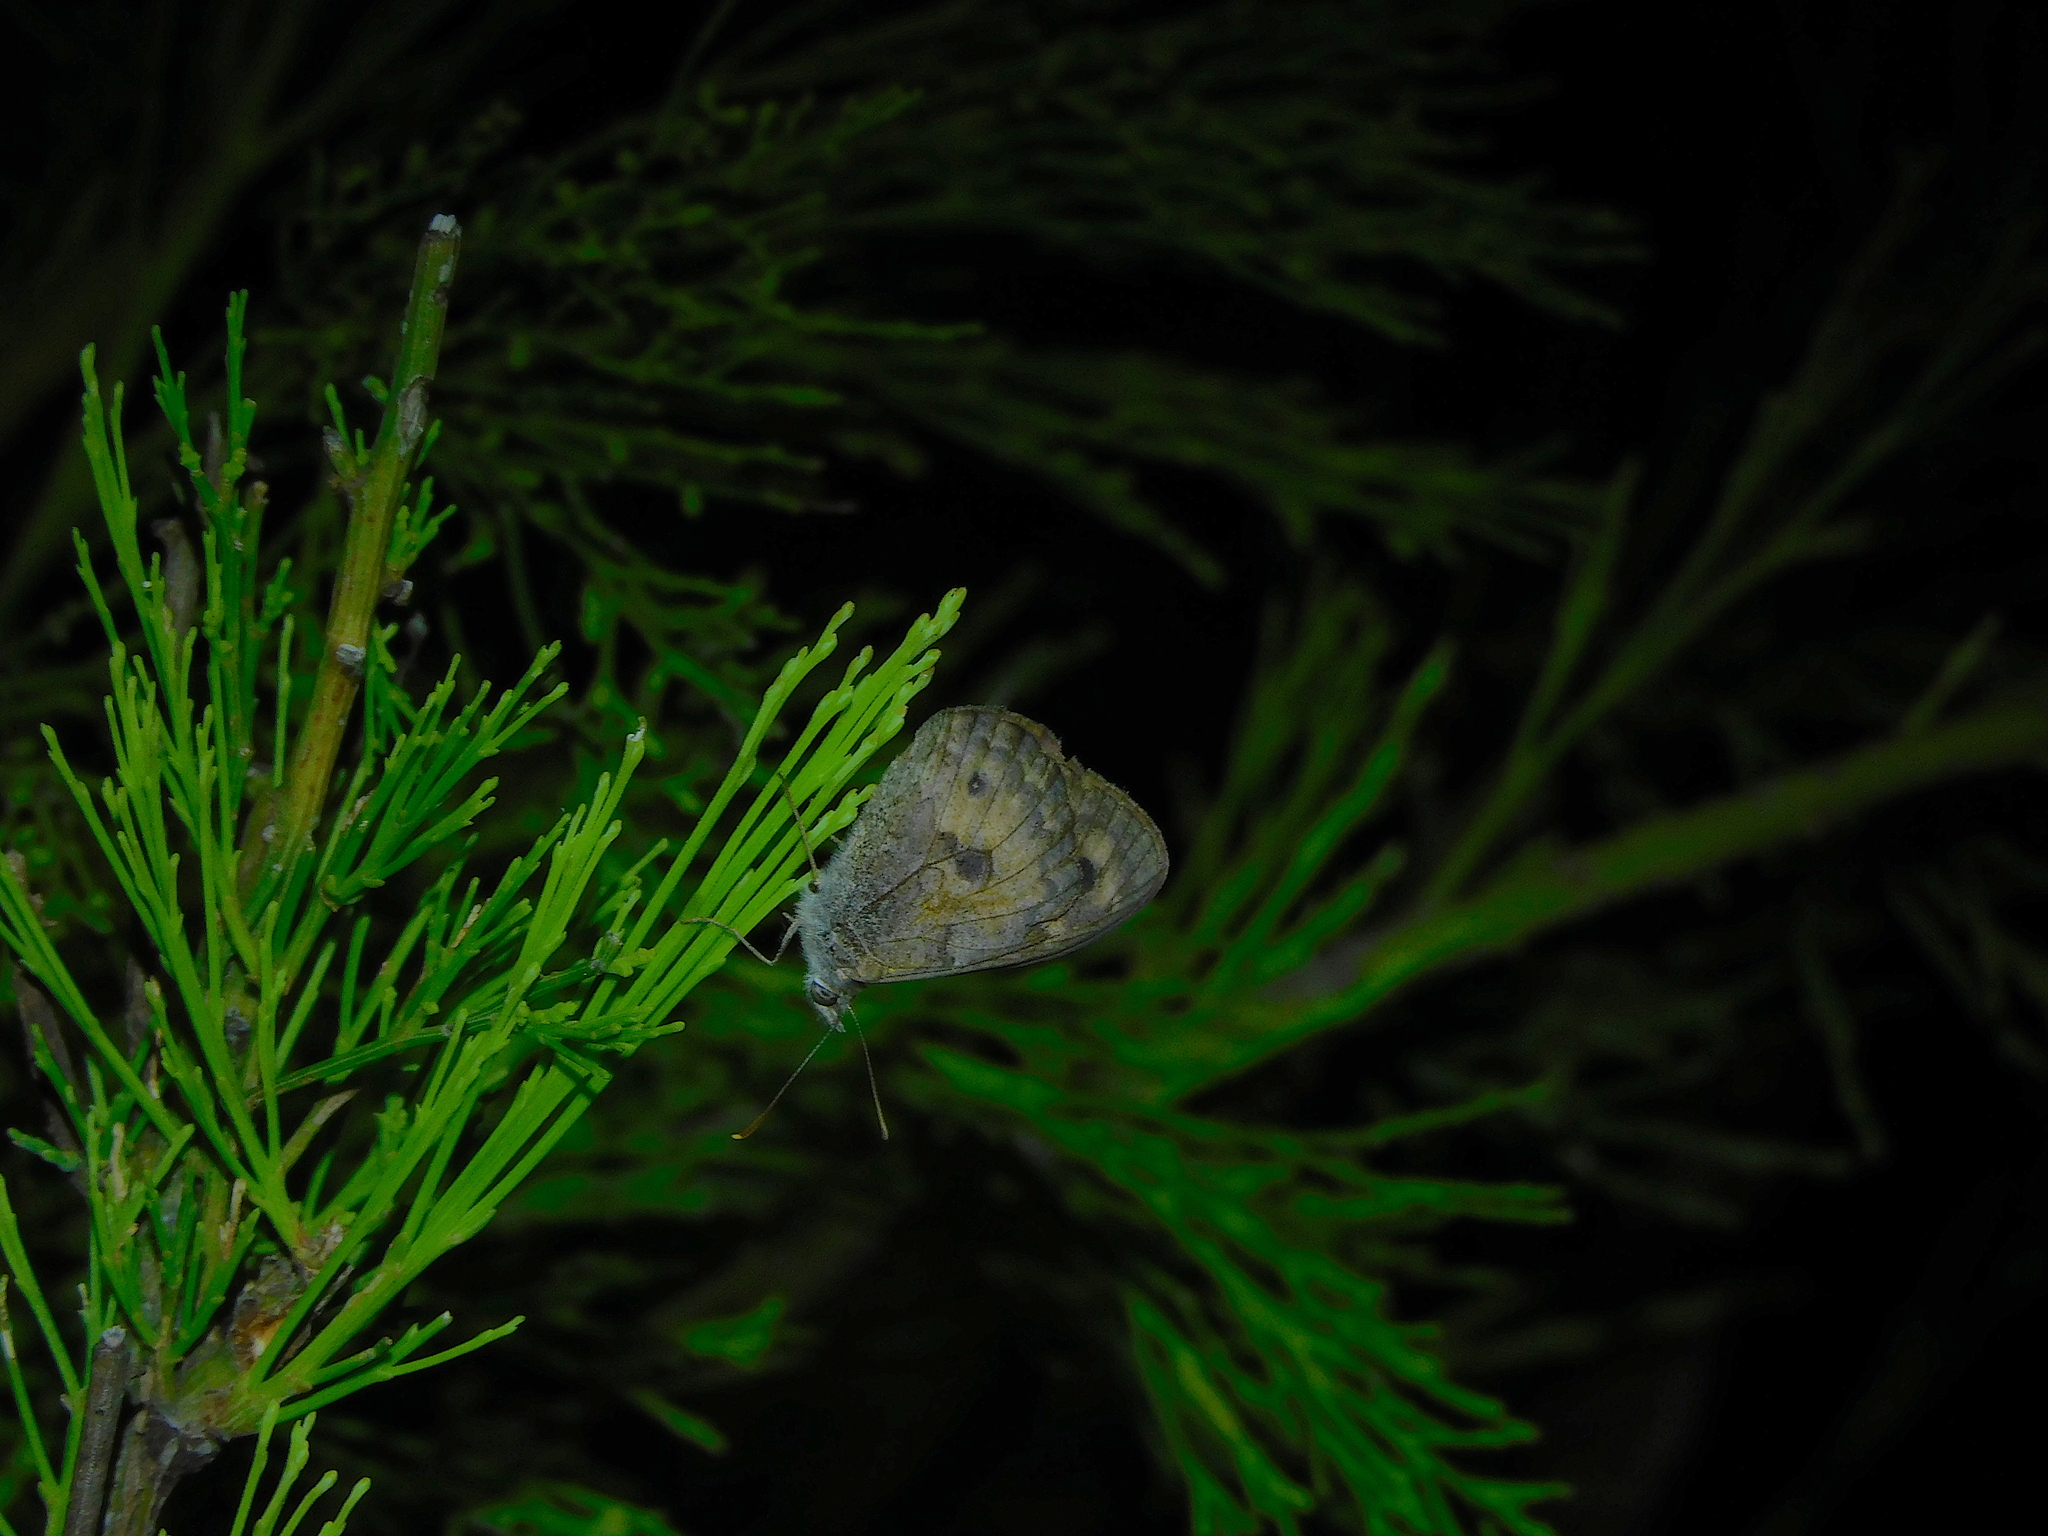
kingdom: Animalia
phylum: Arthropoda
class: Insecta
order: Lepidoptera
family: Nymphalidae
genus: Geitoneura
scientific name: Geitoneura klugii
